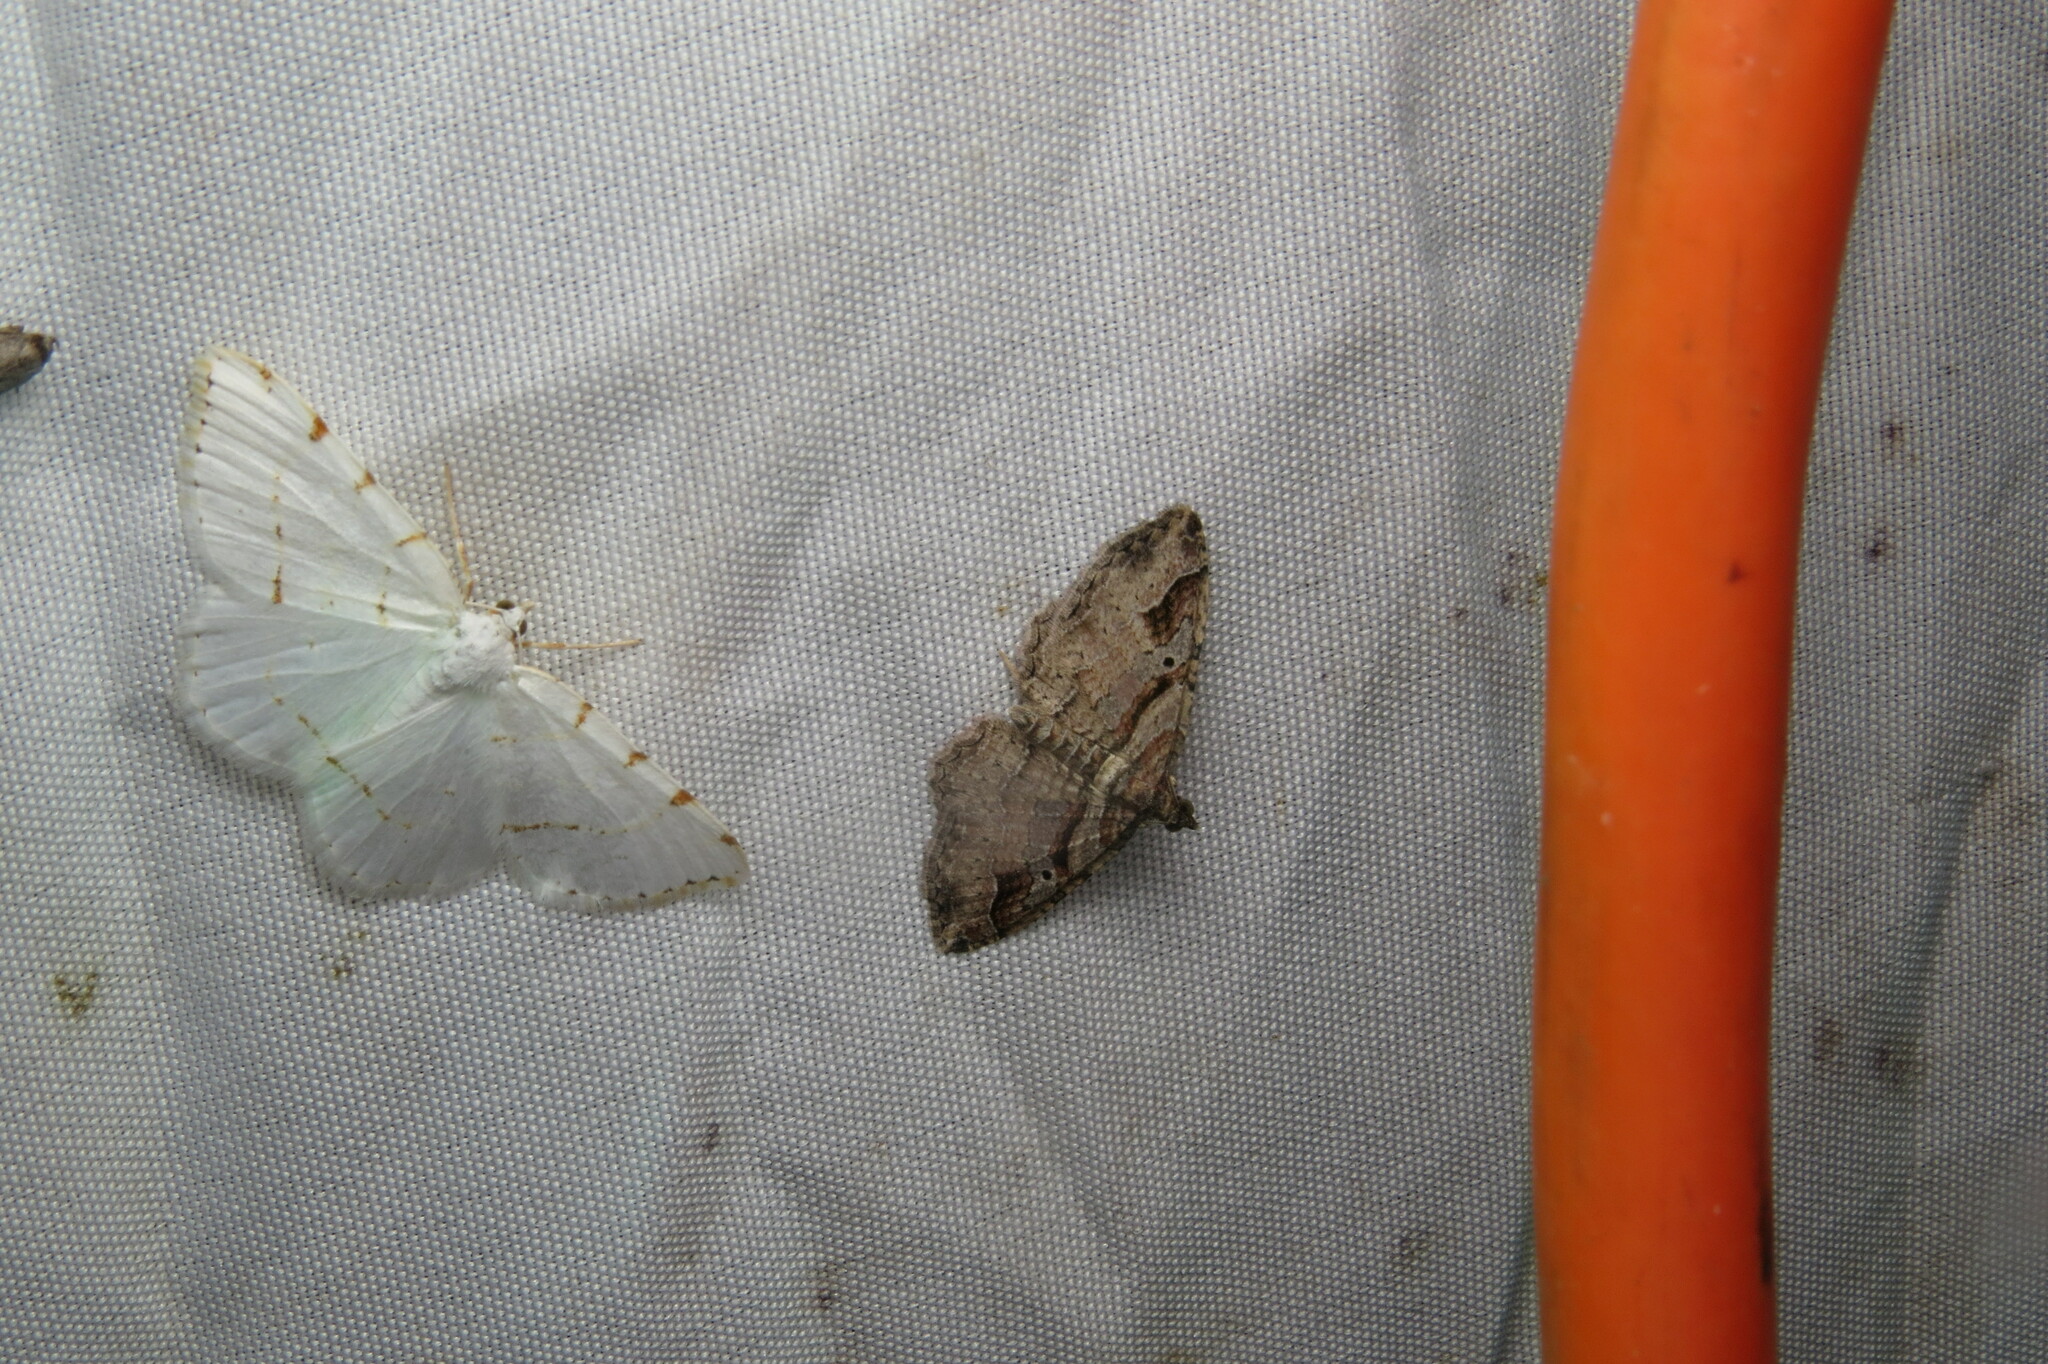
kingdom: Animalia
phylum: Arthropoda
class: Insecta
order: Lepidoptera
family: Geometridae
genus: Macaria
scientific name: Macaria pustularia
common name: Lesser maple spanworm moth
